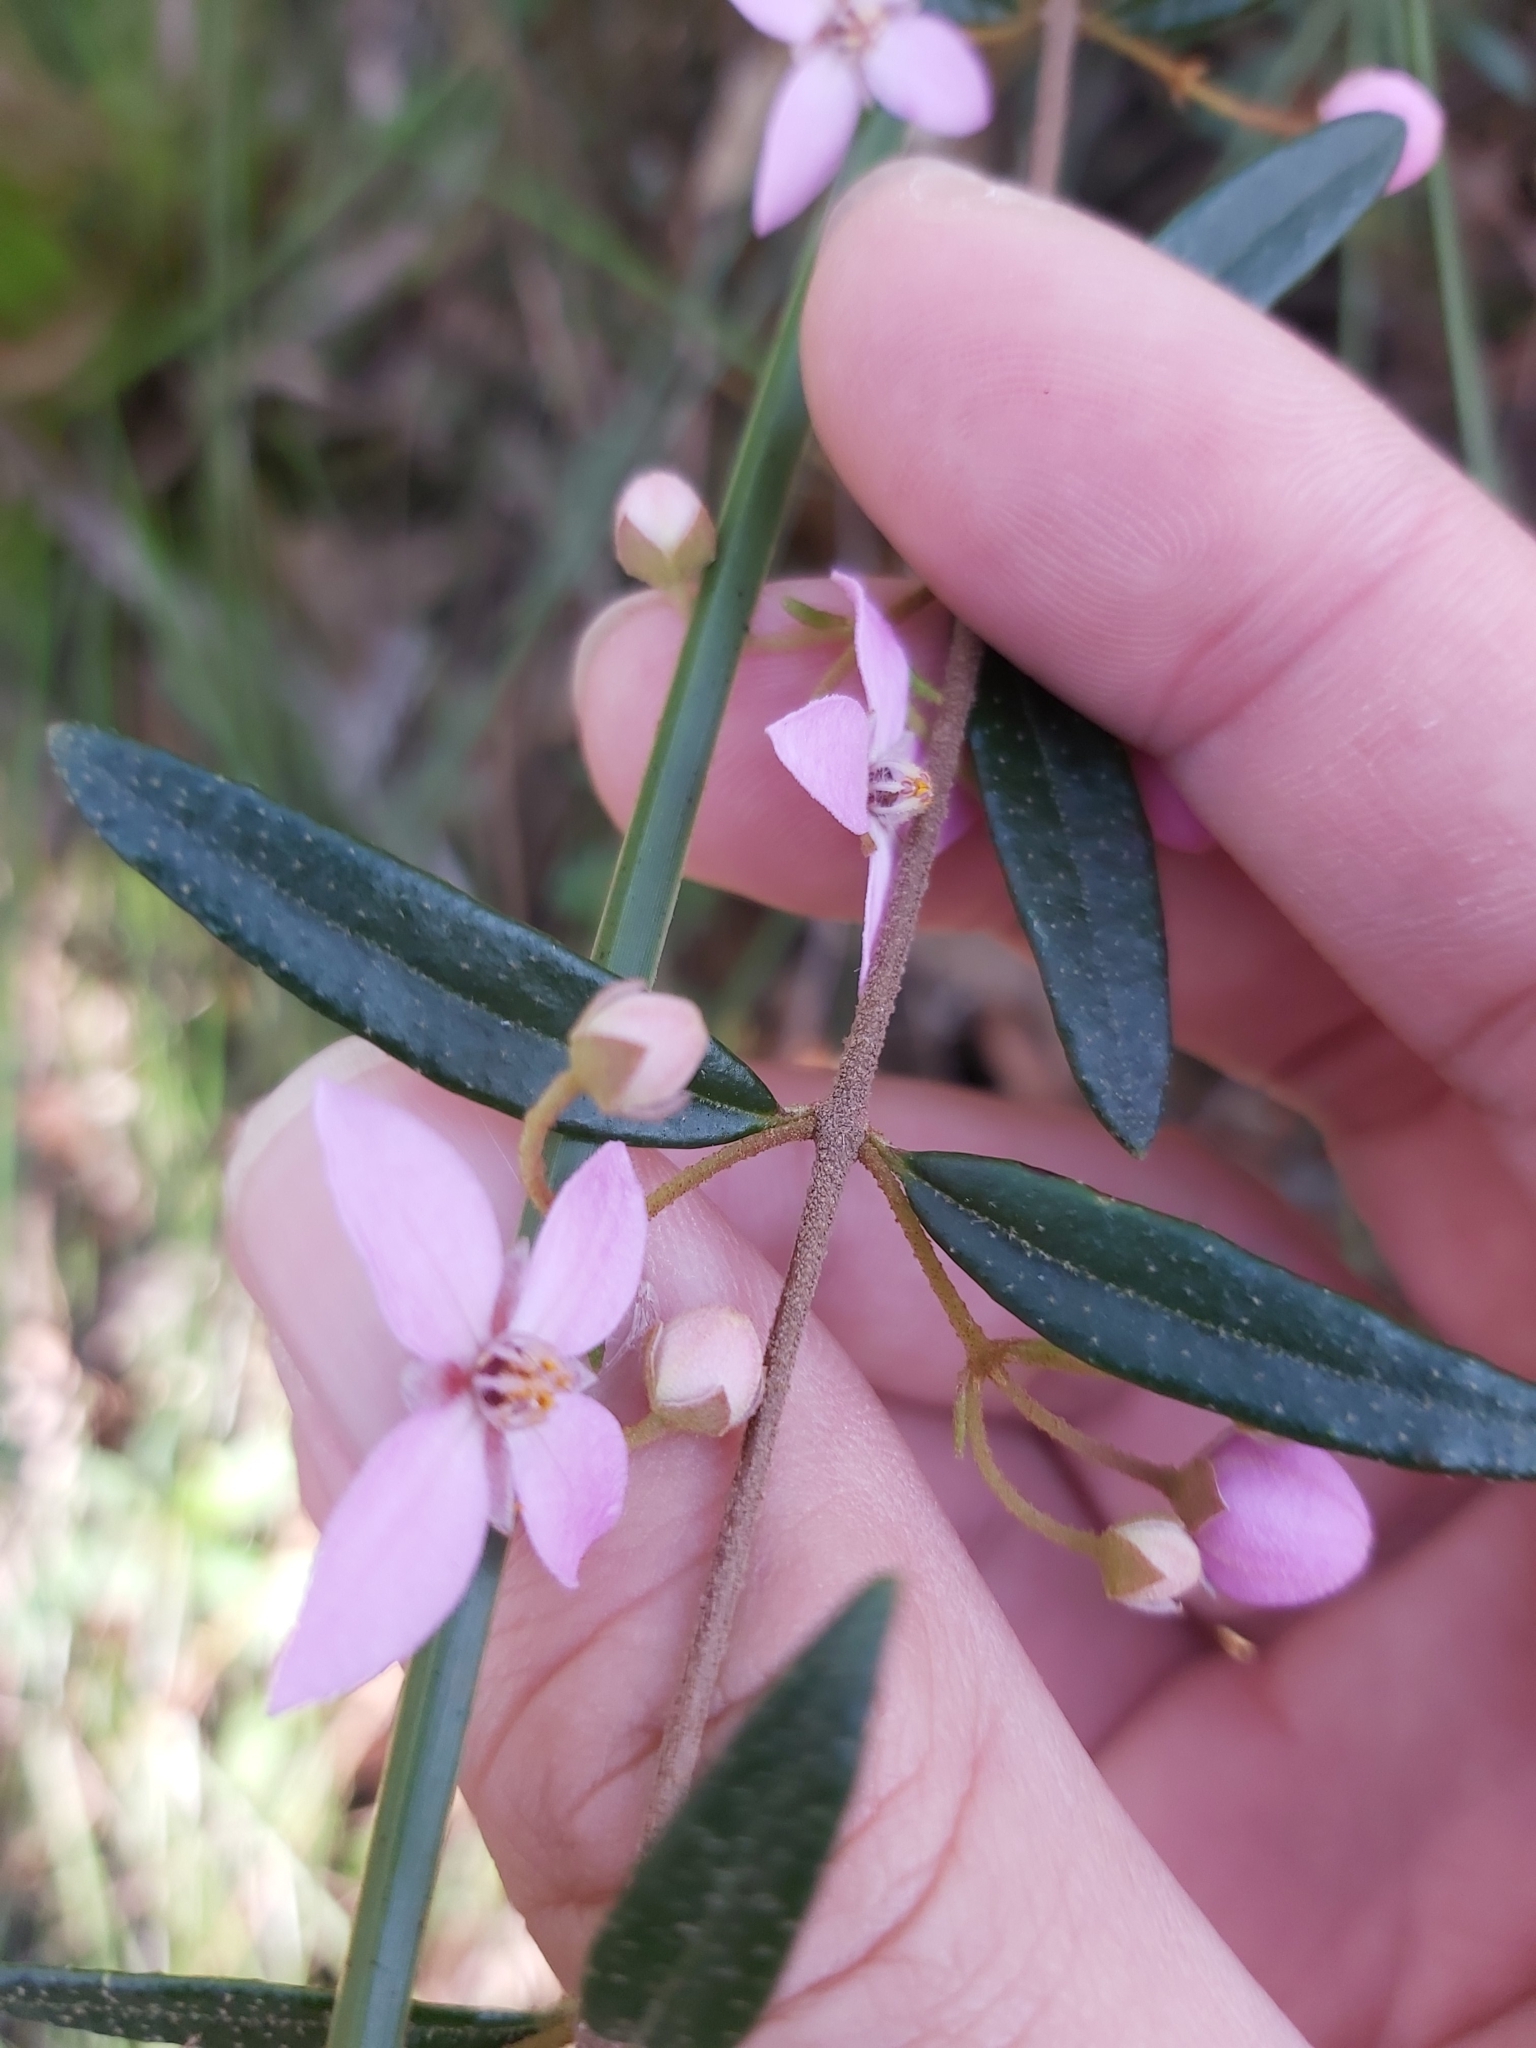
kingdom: Plantae
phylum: Tracheophyta
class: Magnoliopsida
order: Sapindales
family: Rutaceae
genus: Boronia
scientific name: Boronia ledifolia
